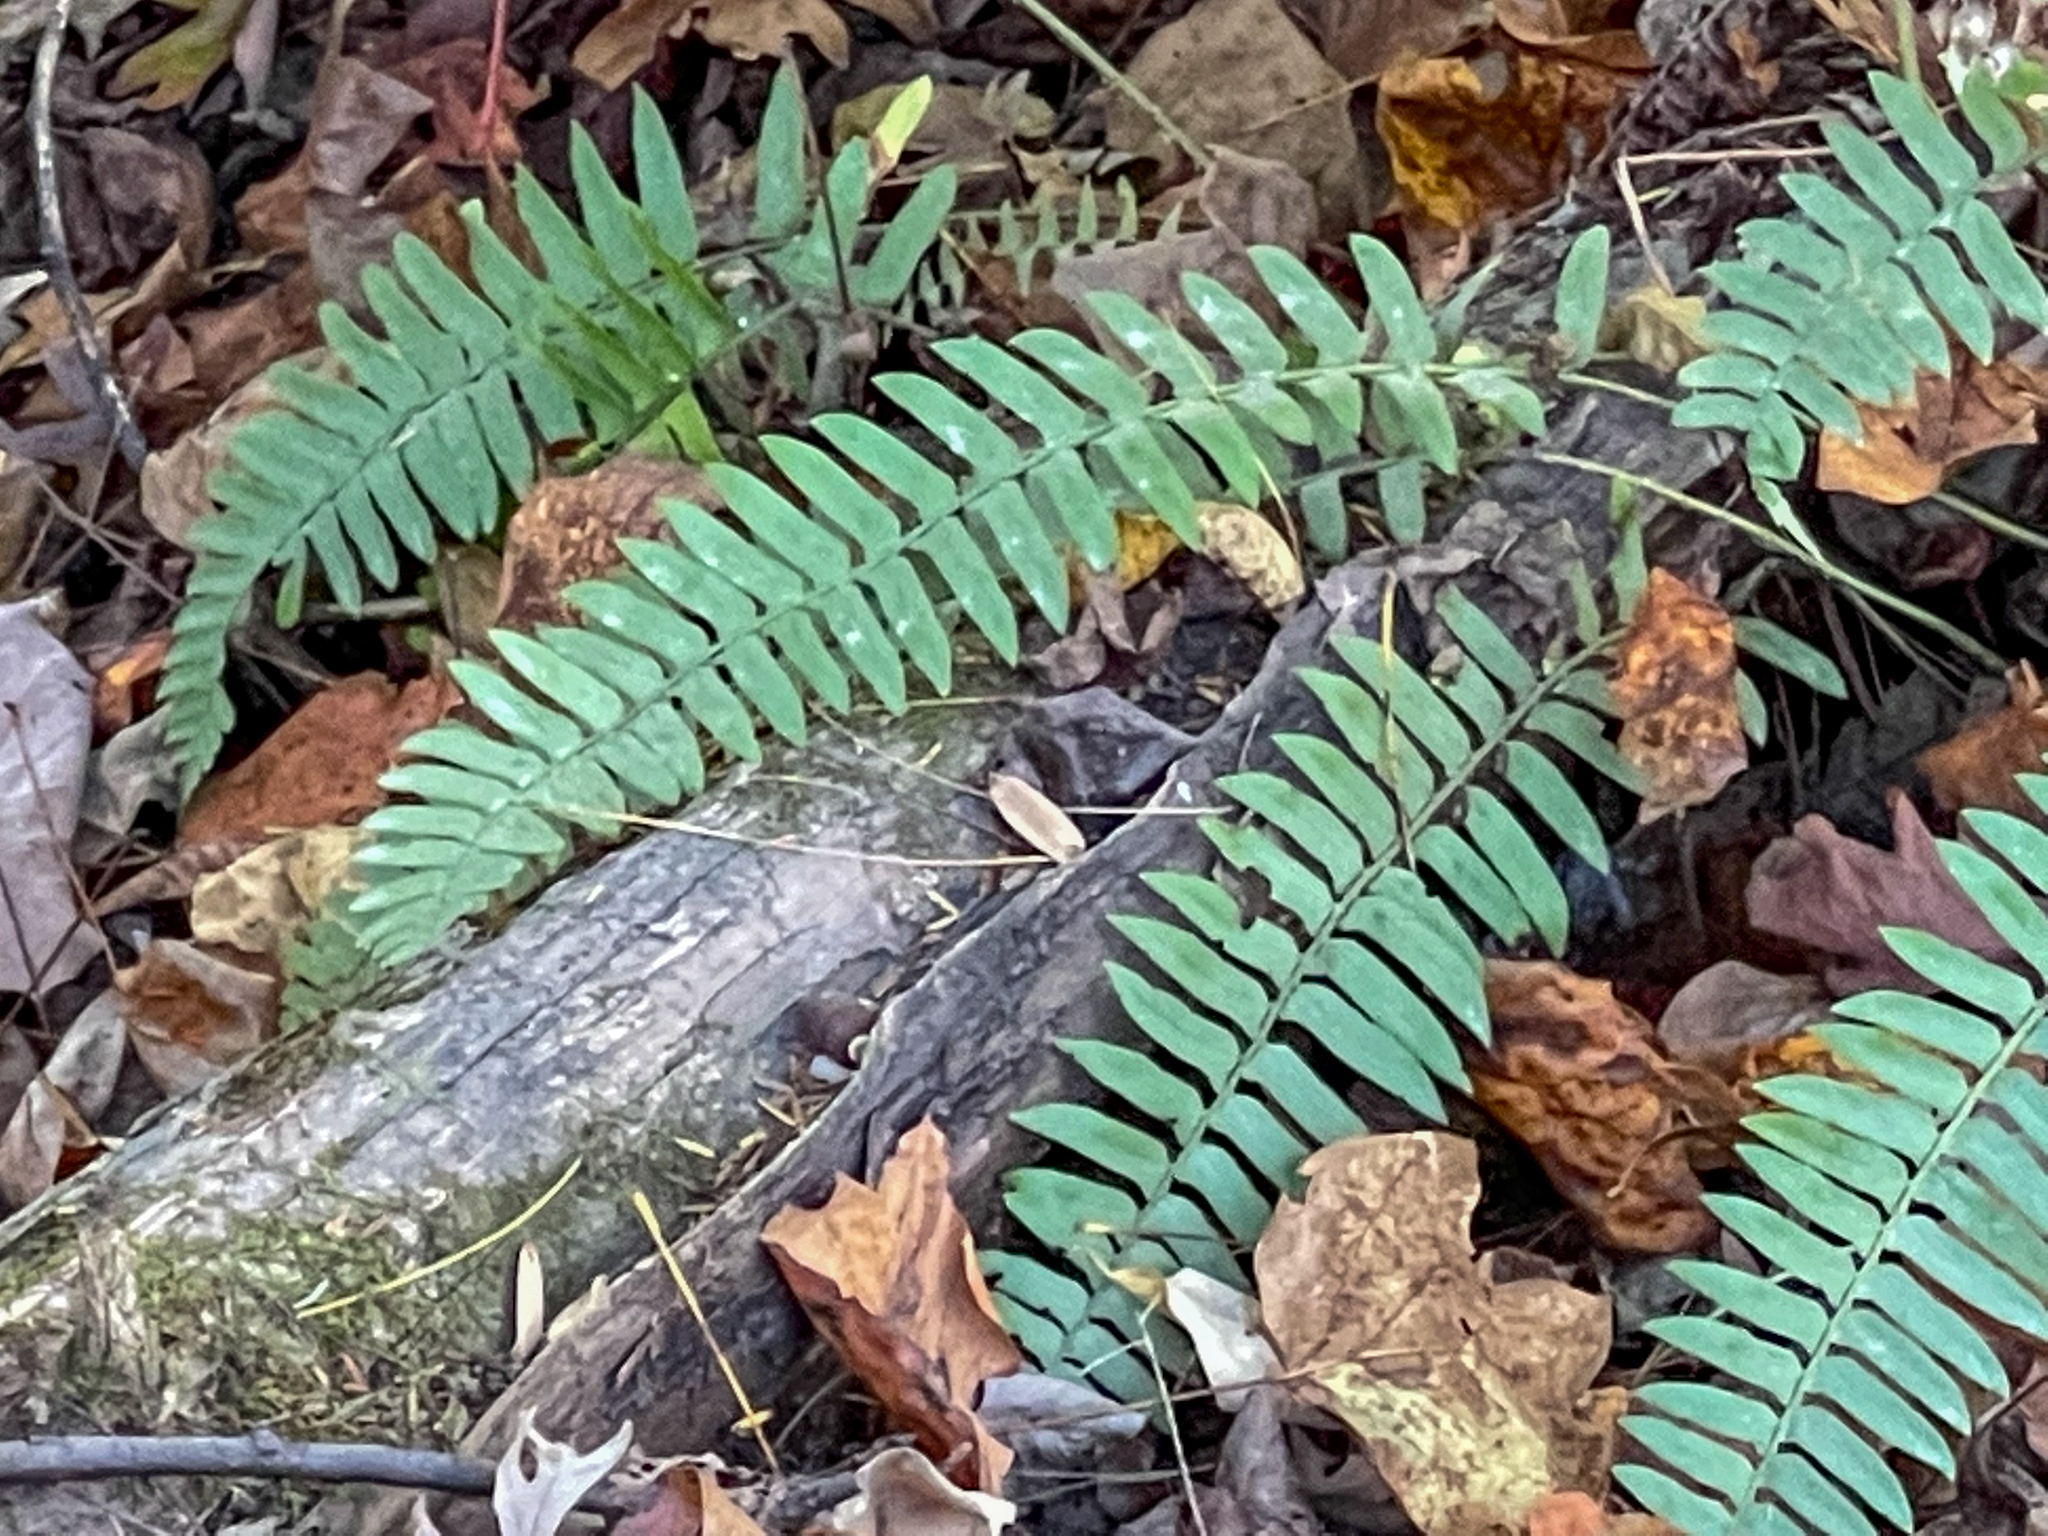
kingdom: Plantae
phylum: Tracheophyta
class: Polypodiopsida
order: Polypodiales
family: Dryopteridaceae
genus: Polystichum
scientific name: Polystichum acrostichoides
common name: Christmas fern
